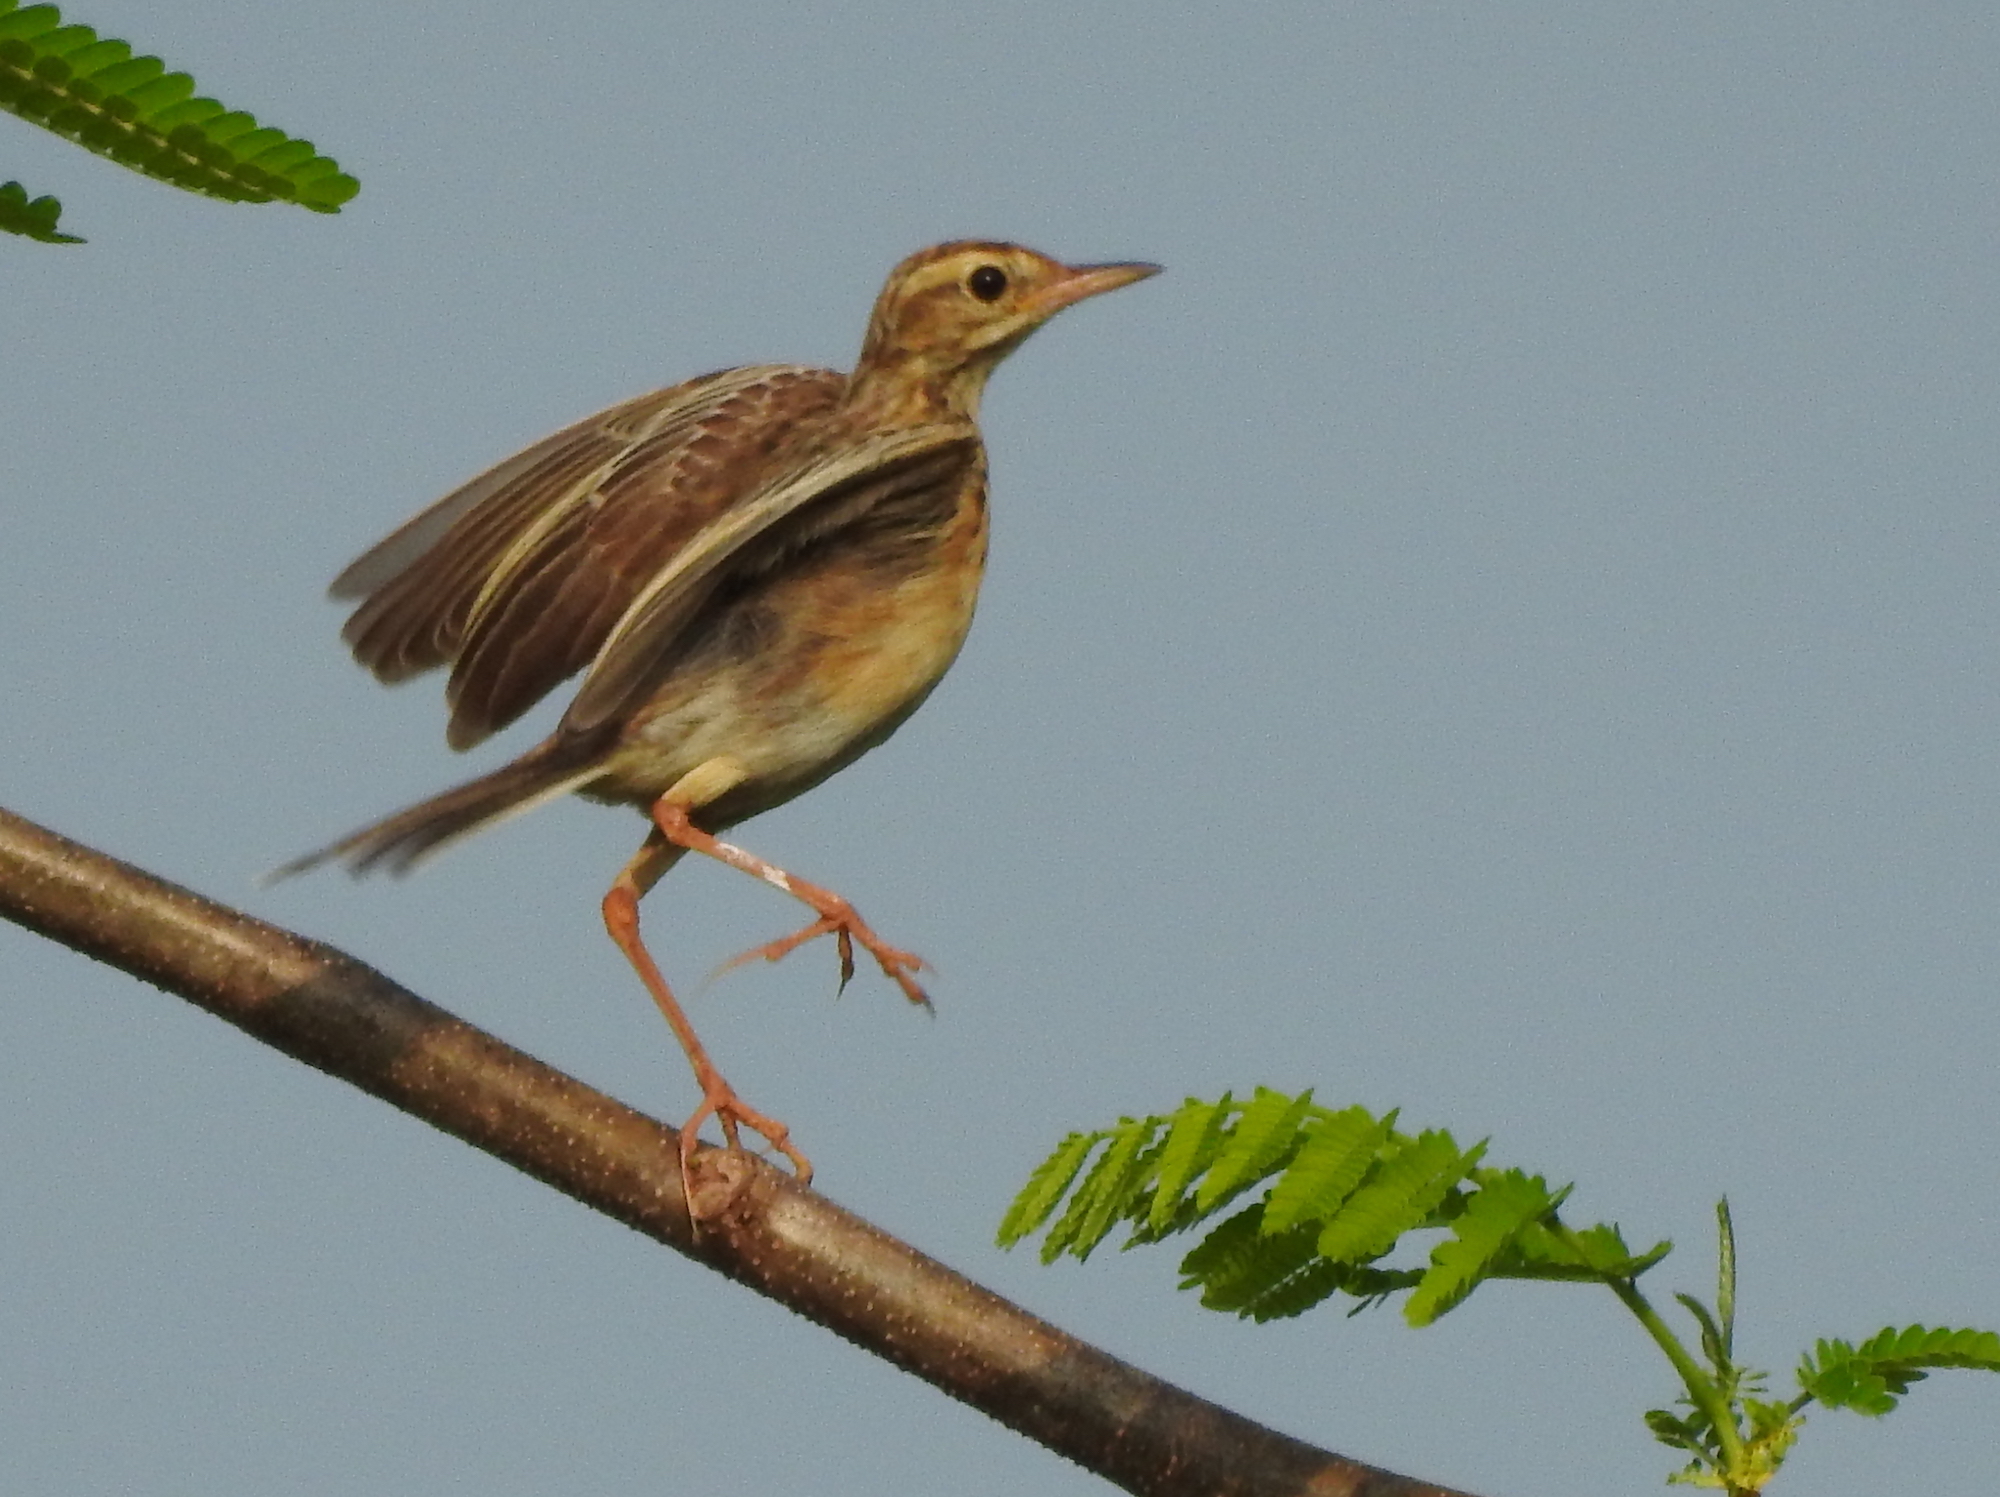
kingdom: Animalia
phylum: Chordata
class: Aves
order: Passeriformes
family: Motacillidae
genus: Anthus
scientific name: Anthus rufulus
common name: Paddyfield pipit
